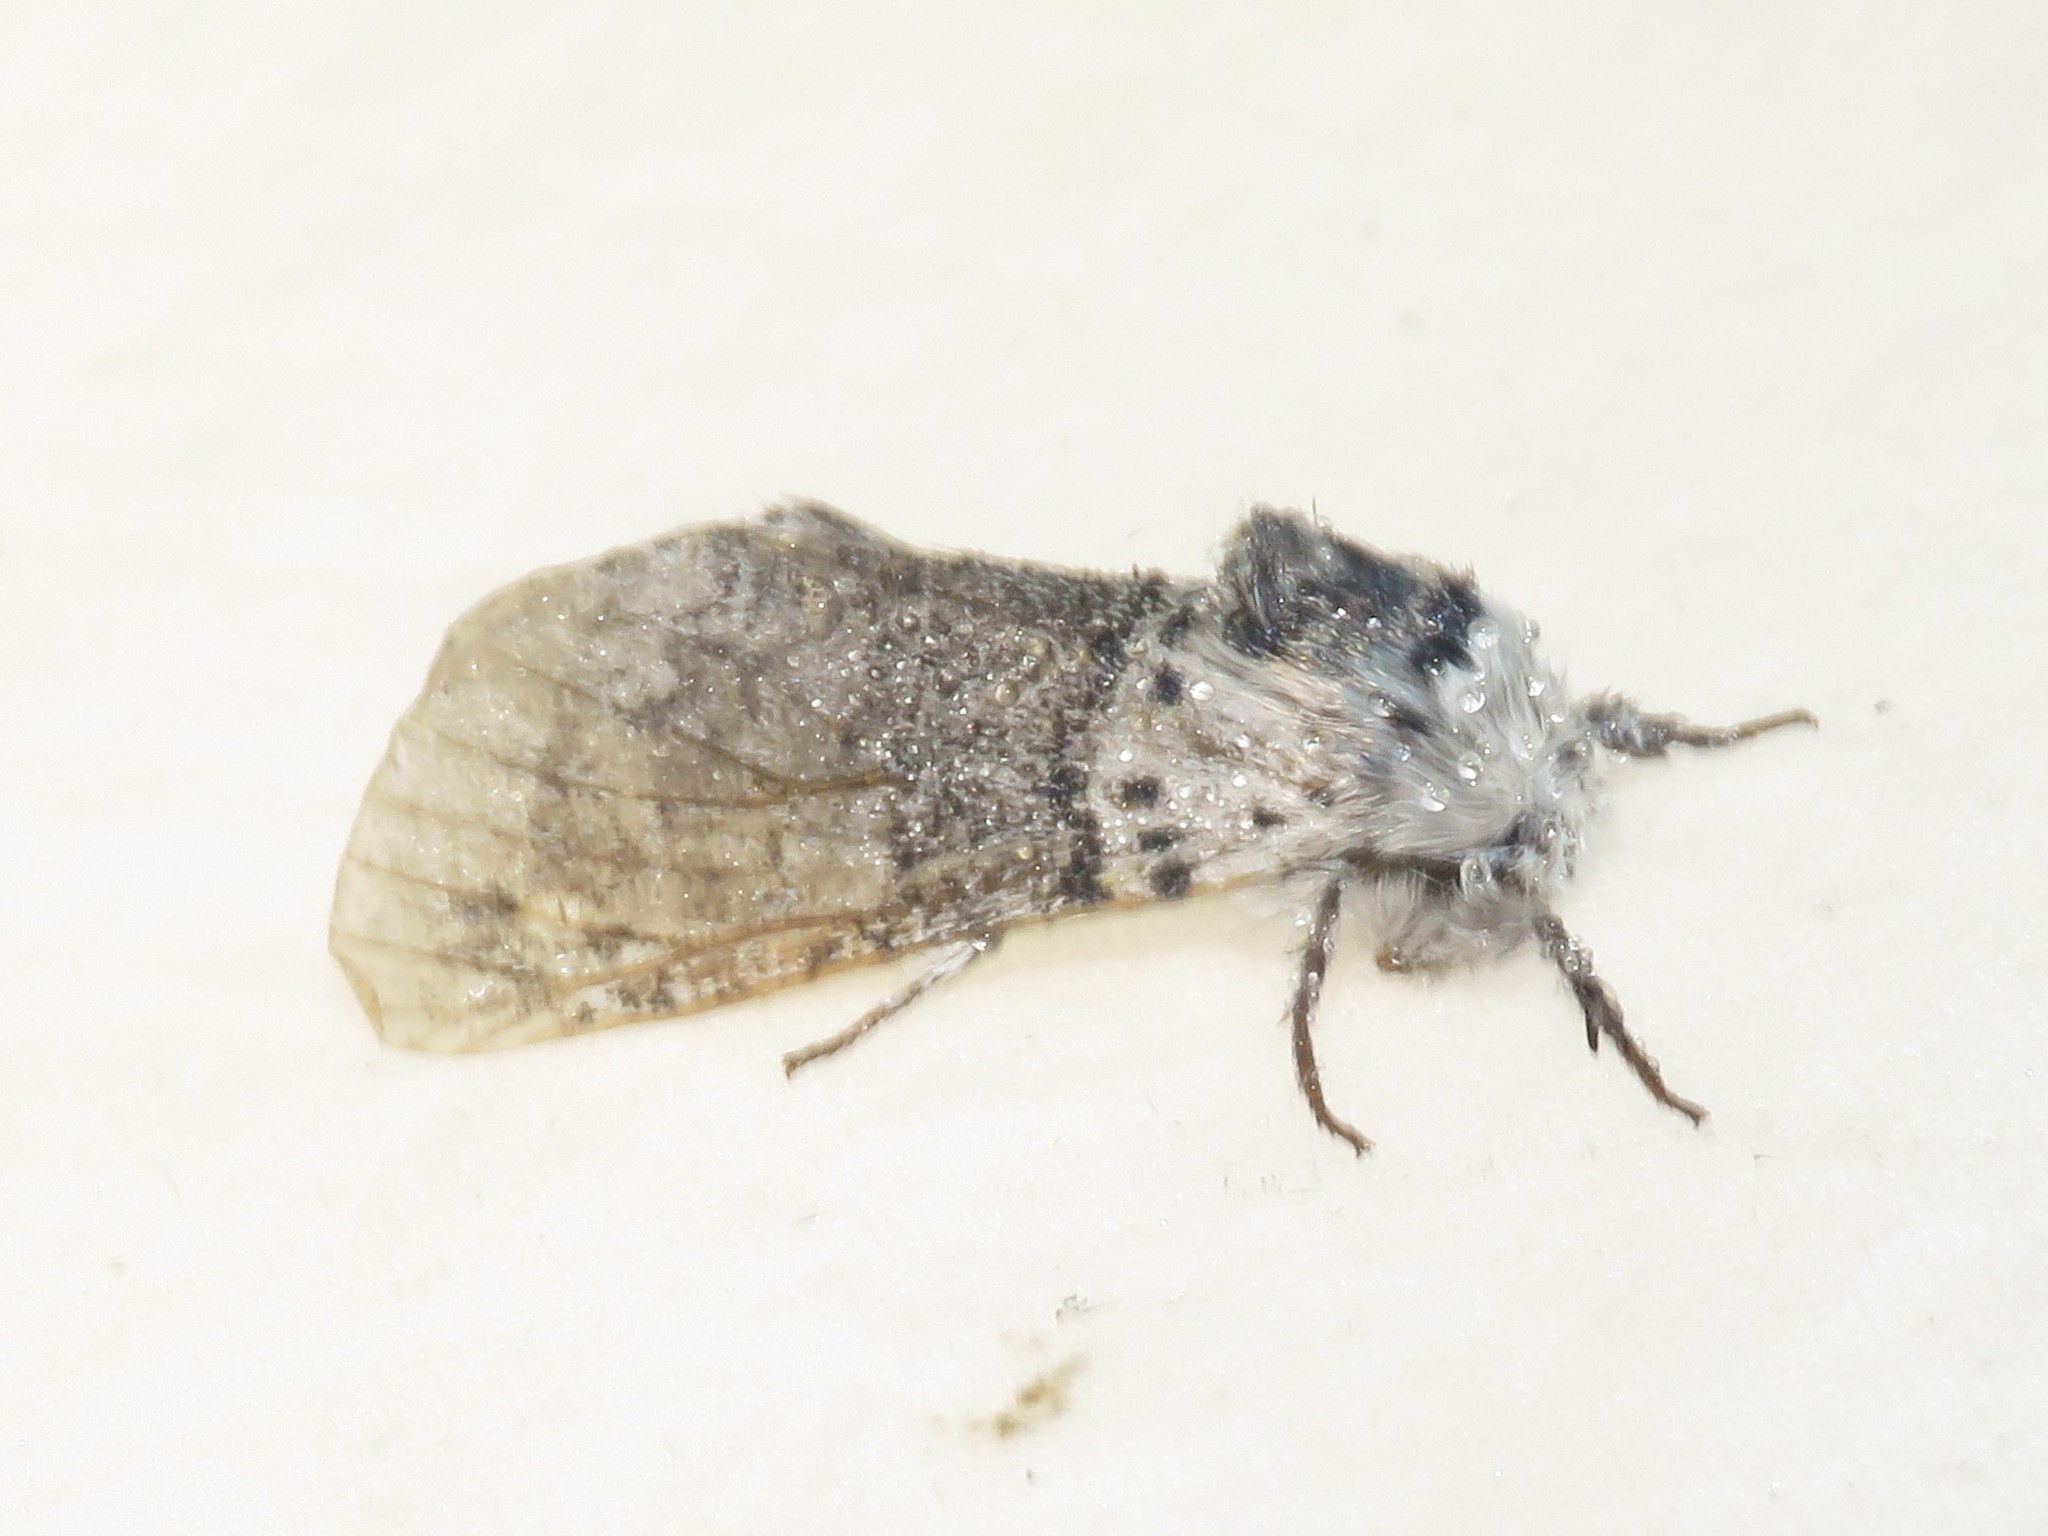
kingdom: Animalia
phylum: Arthropoda
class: Insecta
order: Lepidoptera
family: Notodontidae
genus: Furcula
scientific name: Furcula occidentalis
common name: Western furcula moth
